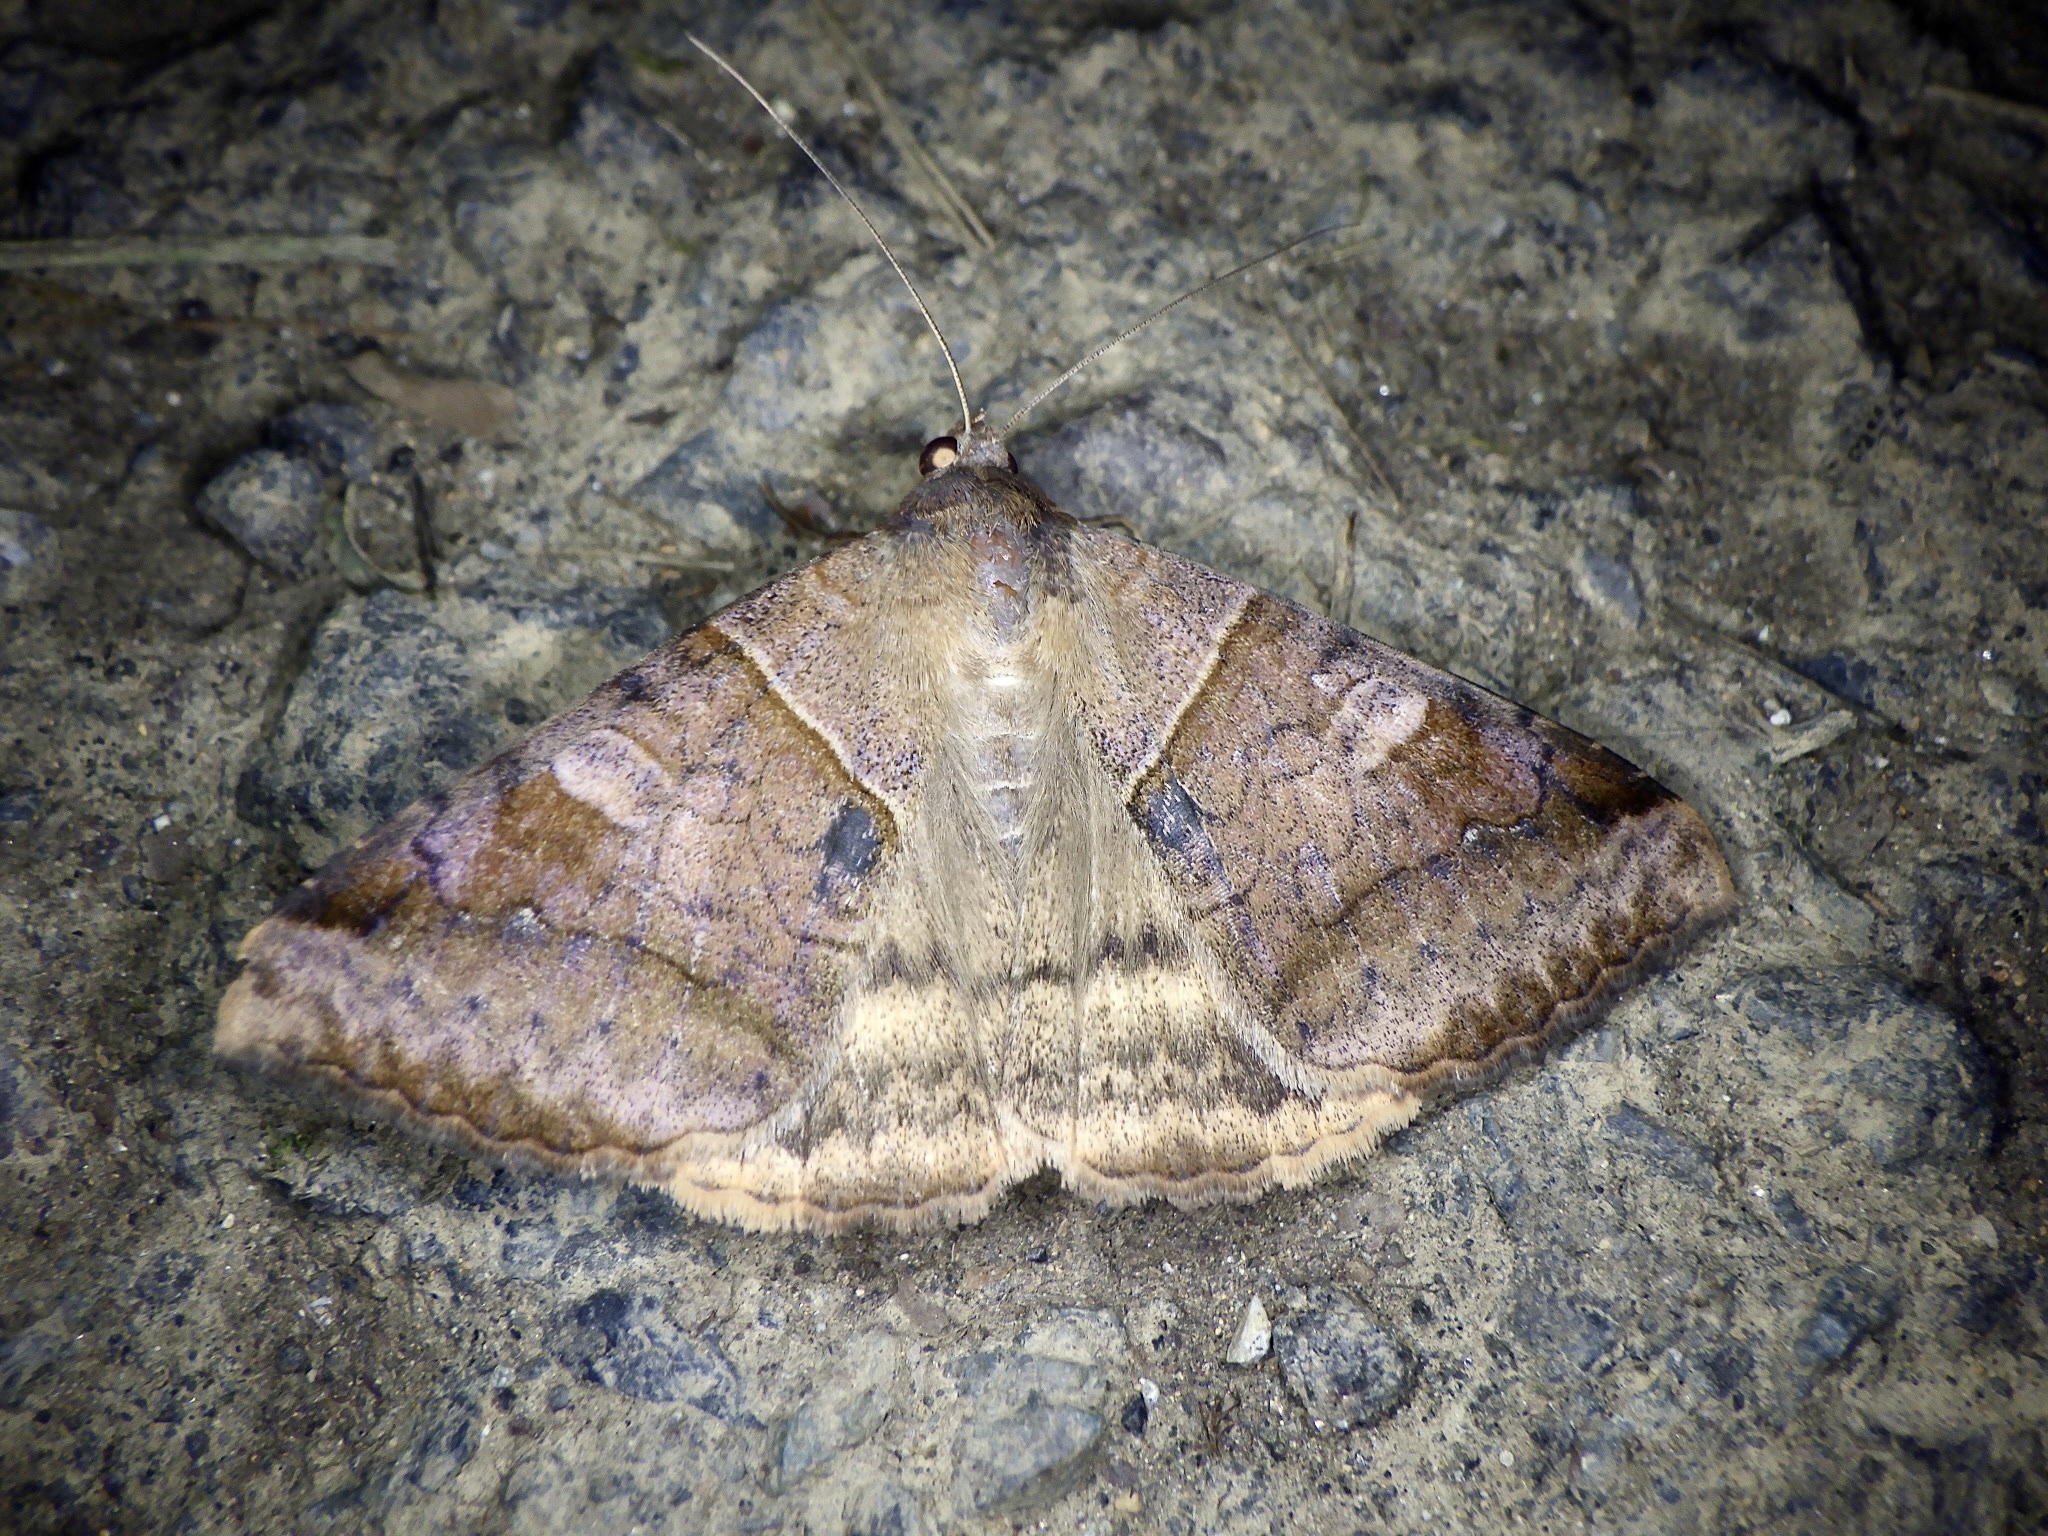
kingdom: Animalia
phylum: Arthropoda
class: Insecta
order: Lepidoptera
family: Erebidae
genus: Mocis
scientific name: Mocis undata
